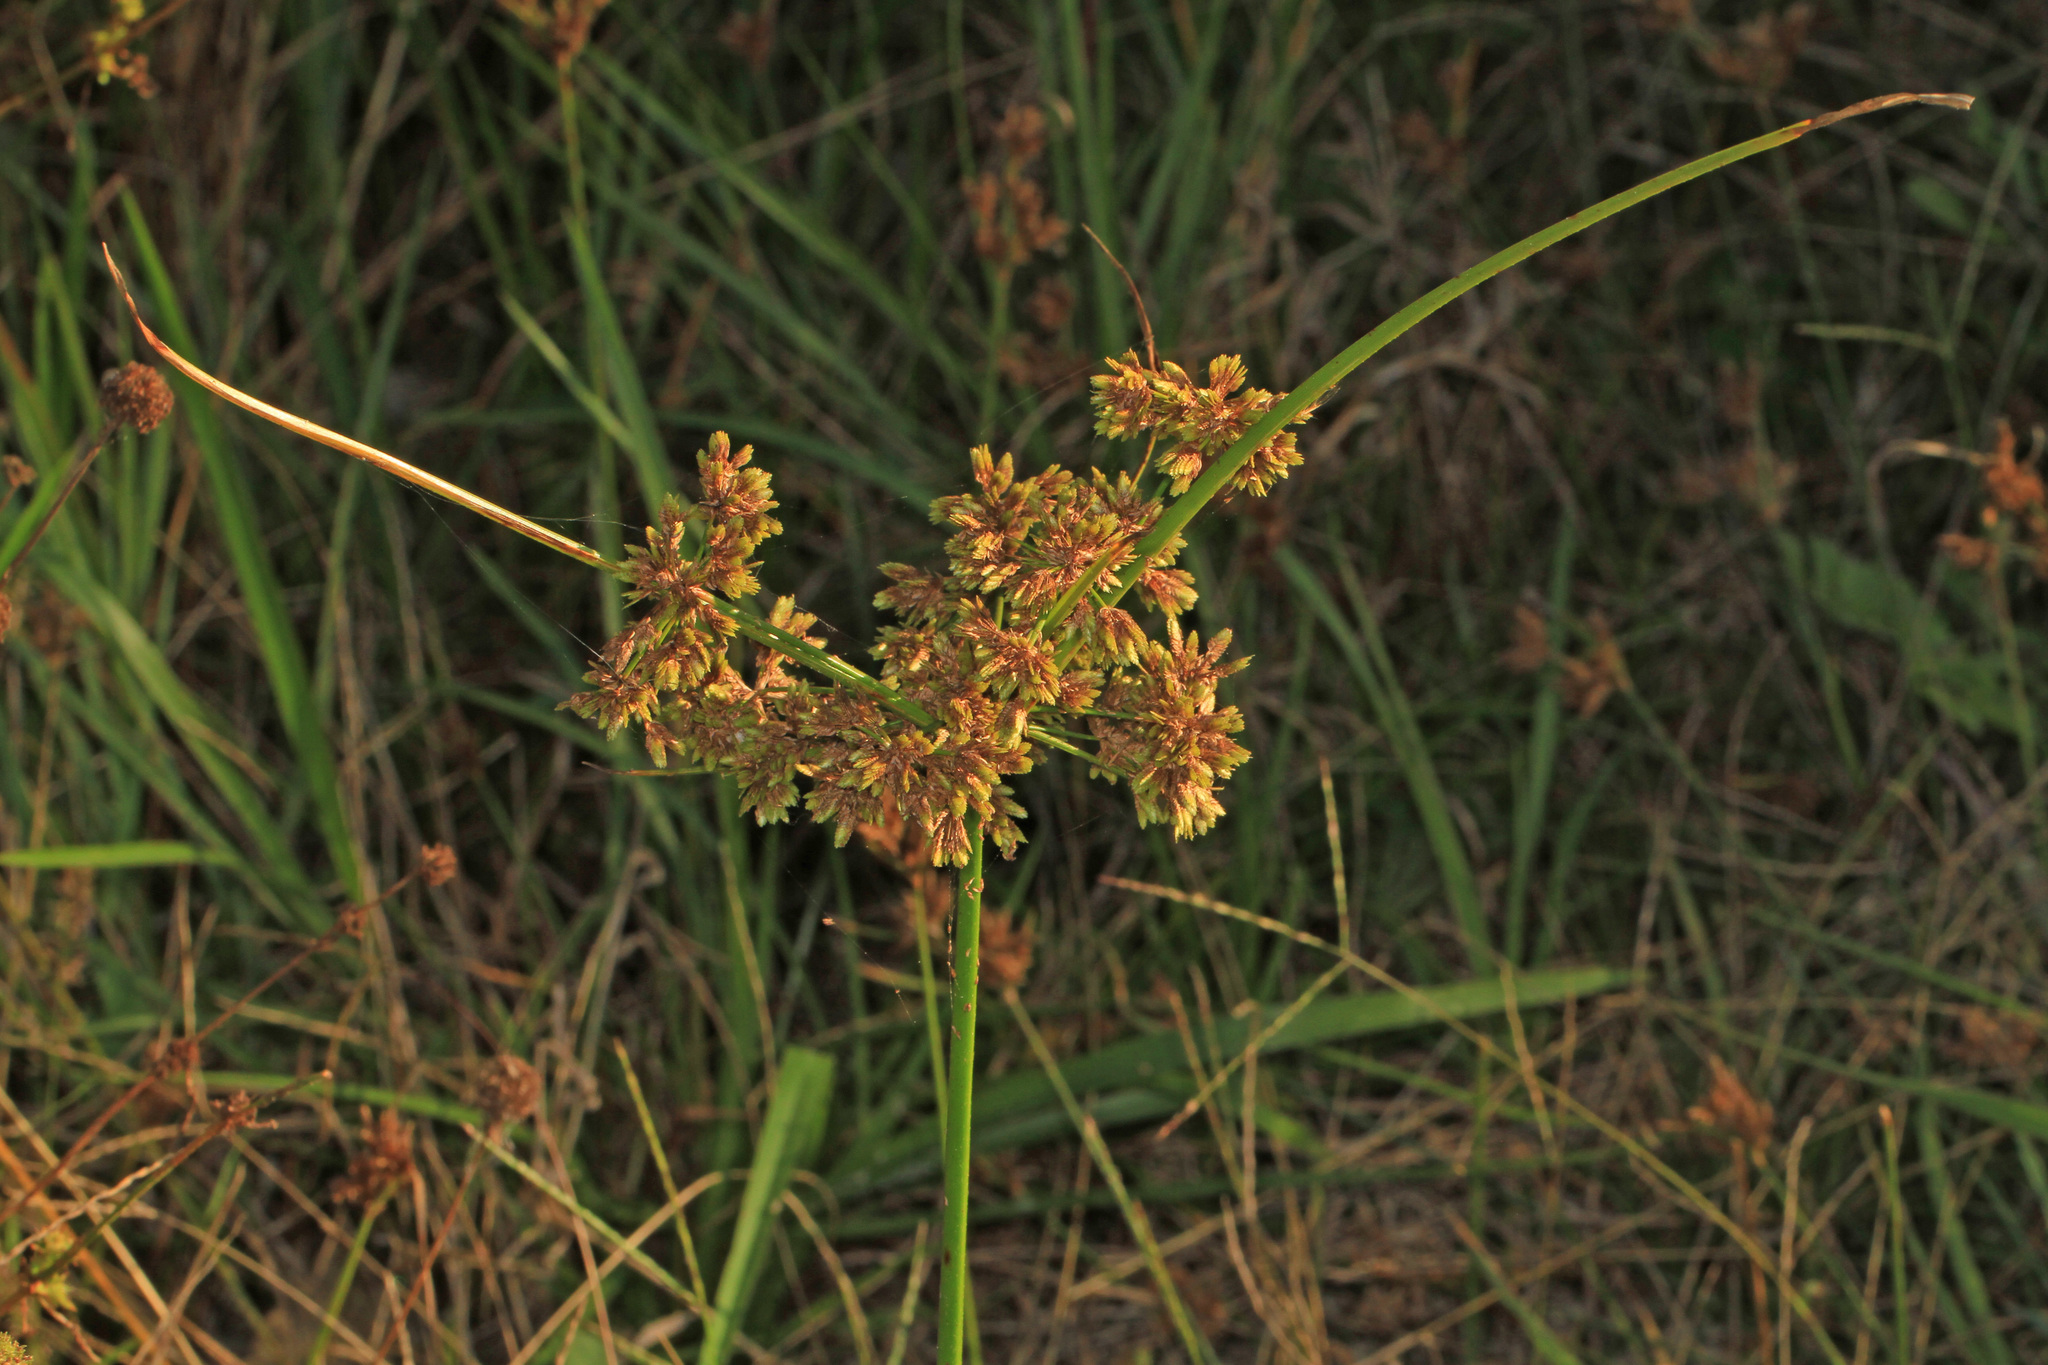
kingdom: Plantae
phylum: Tracheophyta
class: Liliopsida
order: Poales
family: Cyperaceae
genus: Cyperus
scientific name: Cyperus surinamensis
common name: Tropical flat sedge
